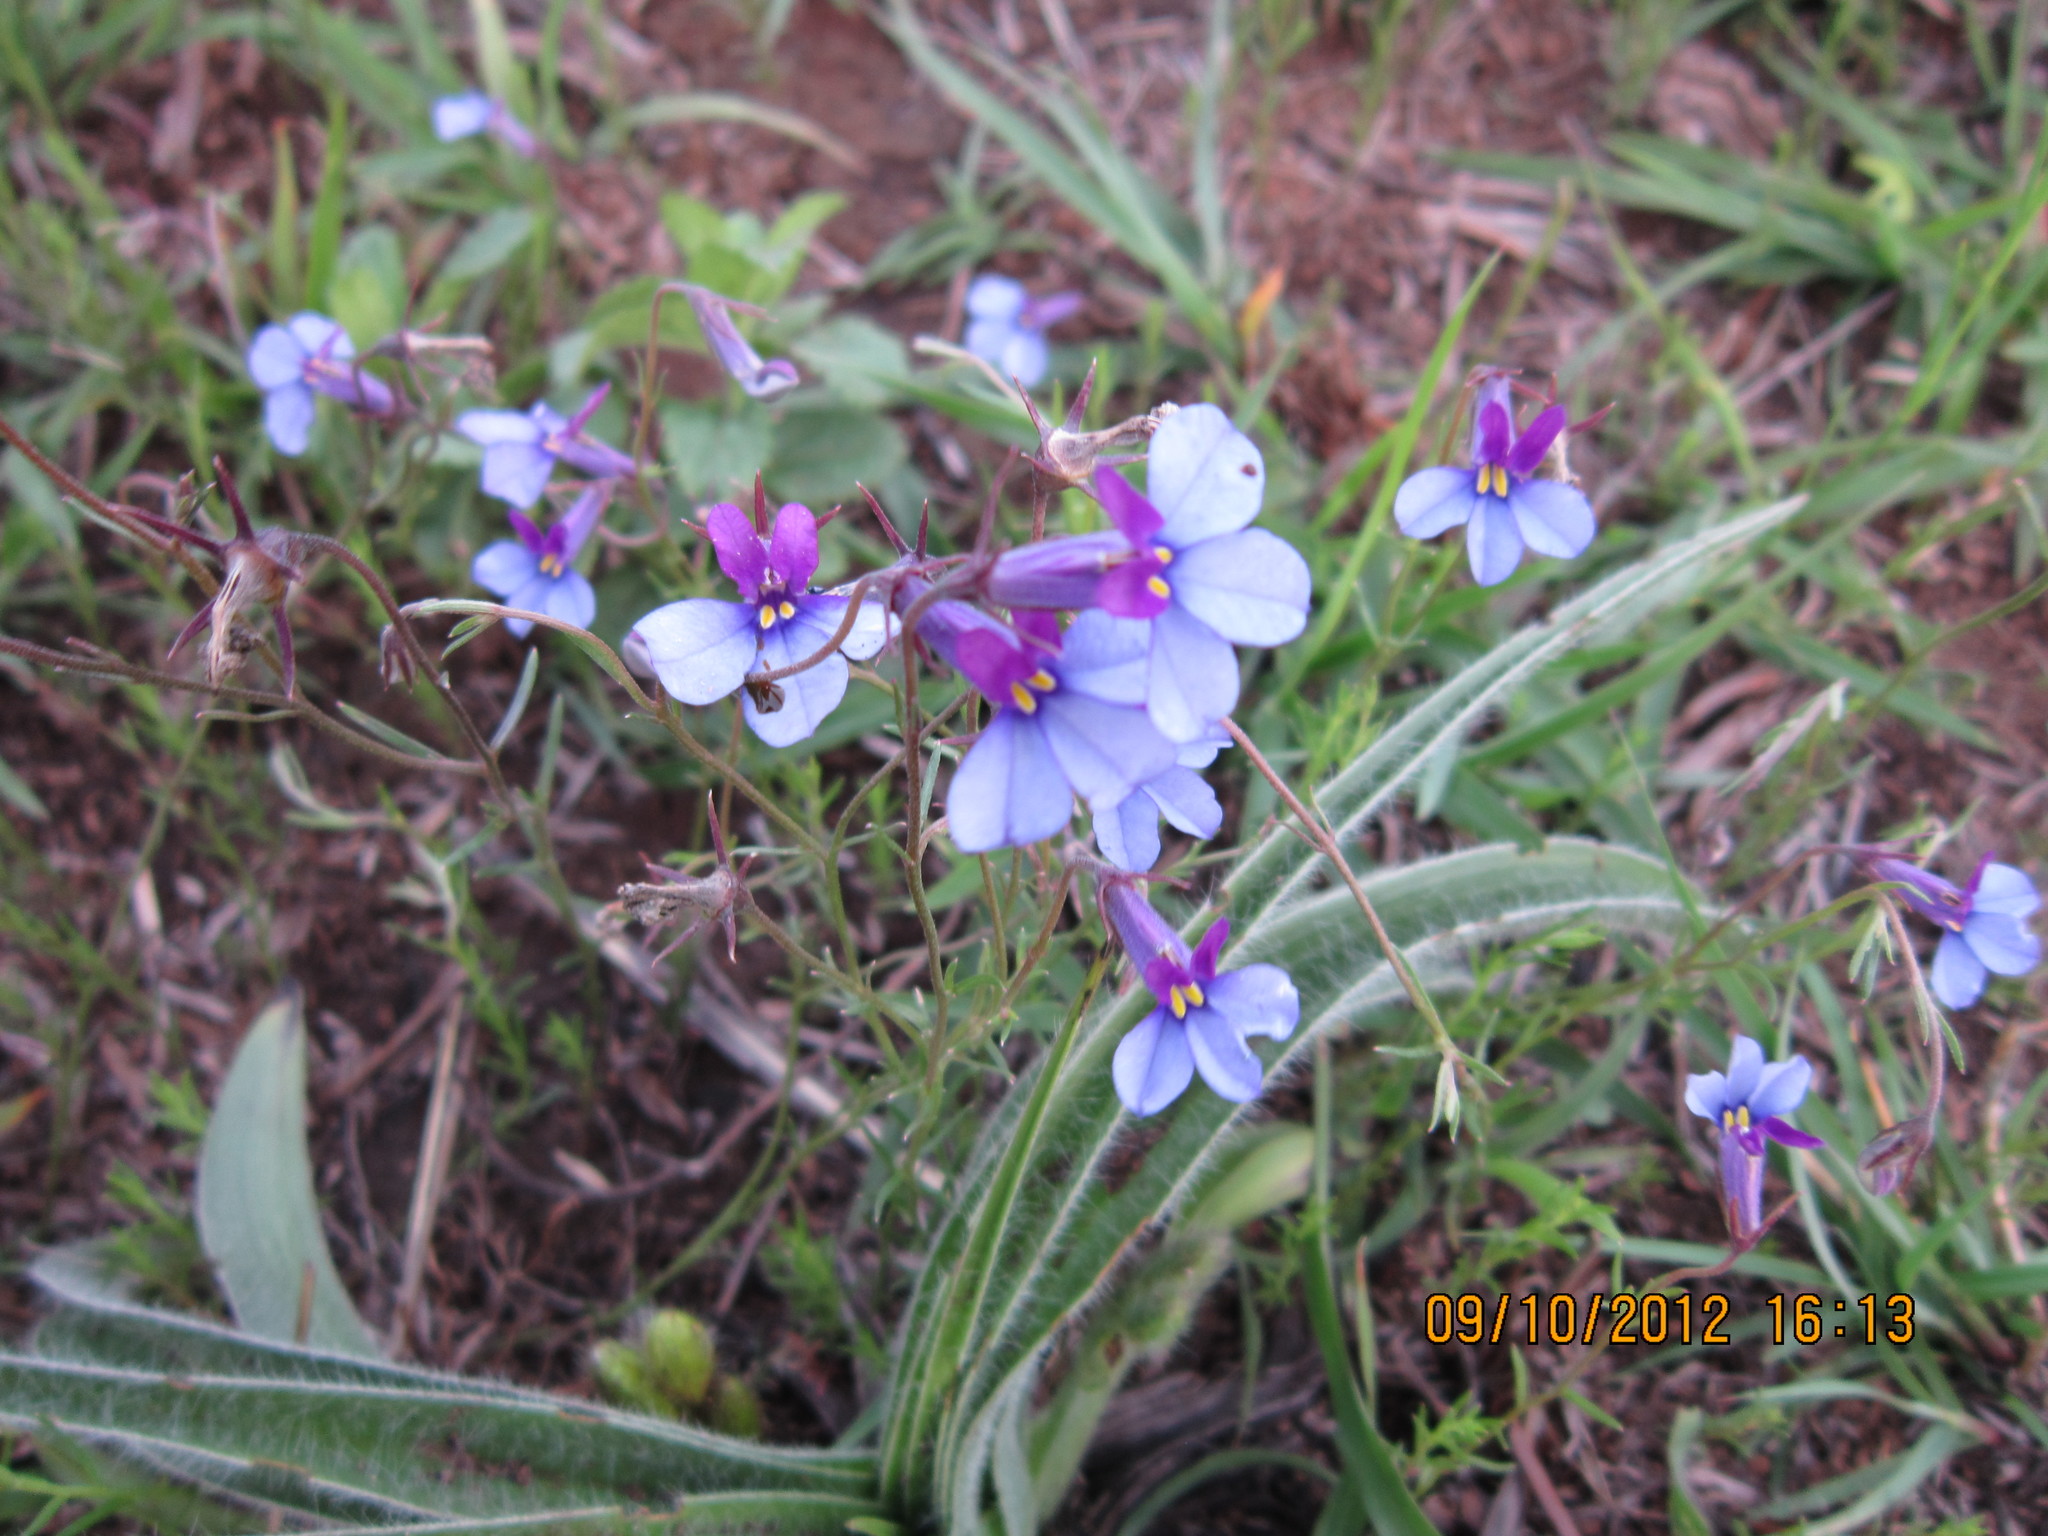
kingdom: Plantae
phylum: Tracheophyta
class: Magnoliopsida
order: Asterales
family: Campanulaceae
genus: Monopsis
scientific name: Monopsis decipiens
